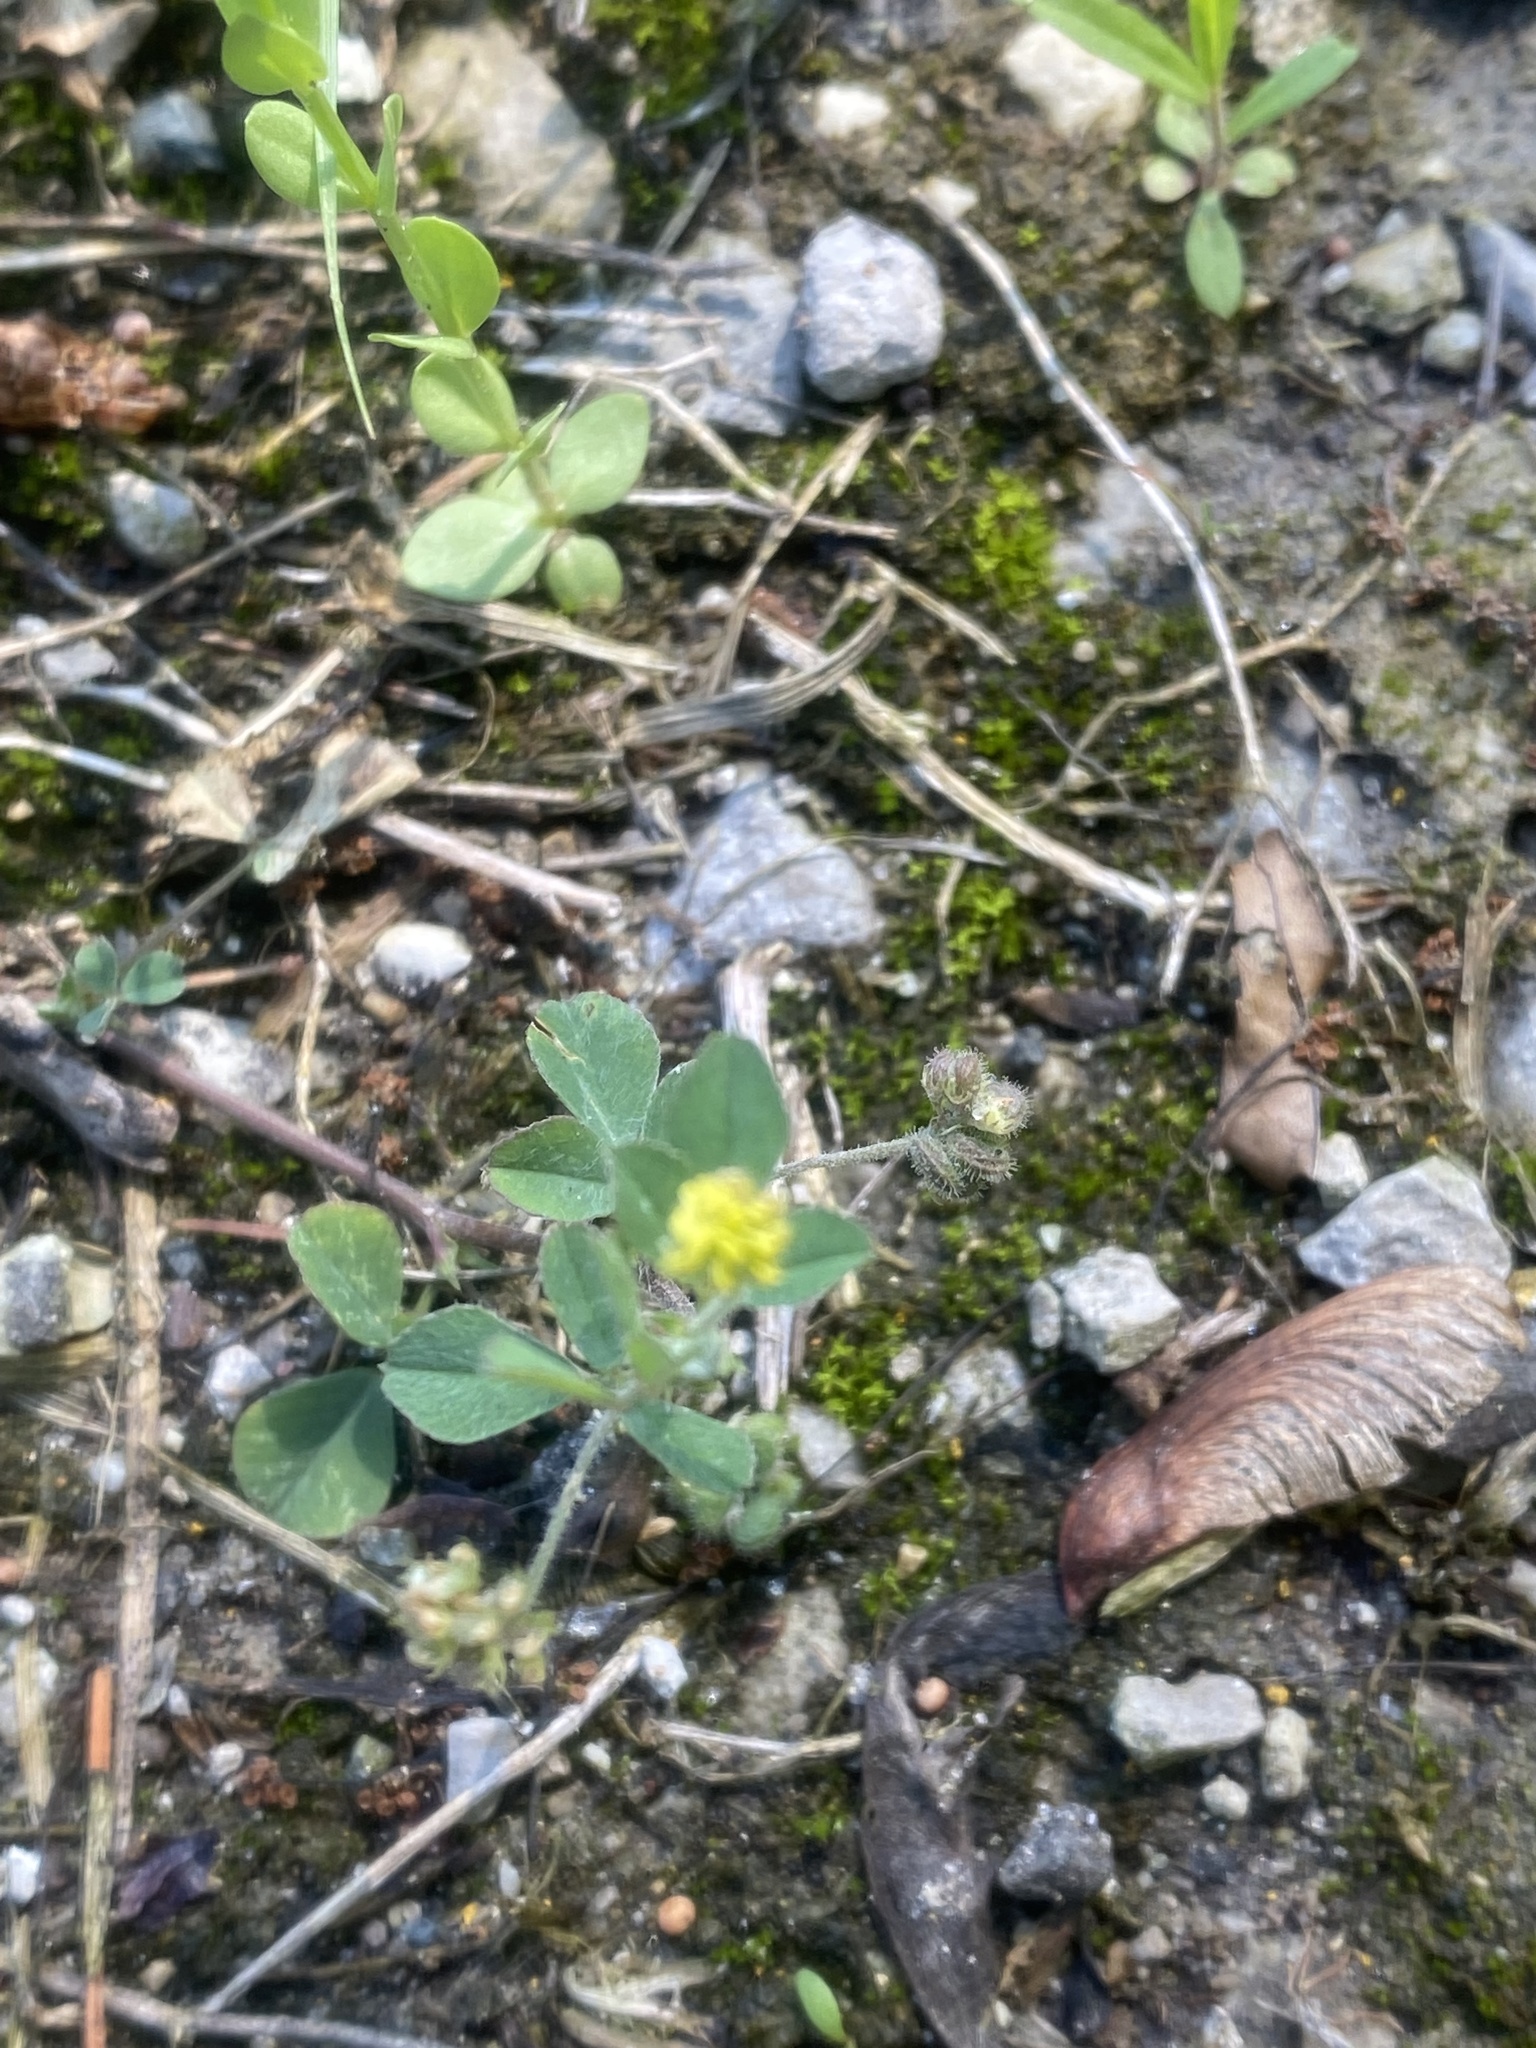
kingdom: Plantae
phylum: Tracheophyta
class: Magnoliopsida
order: Fabales
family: Fabaceae
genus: Medicago
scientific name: Medicago lupulina
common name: Black medick
